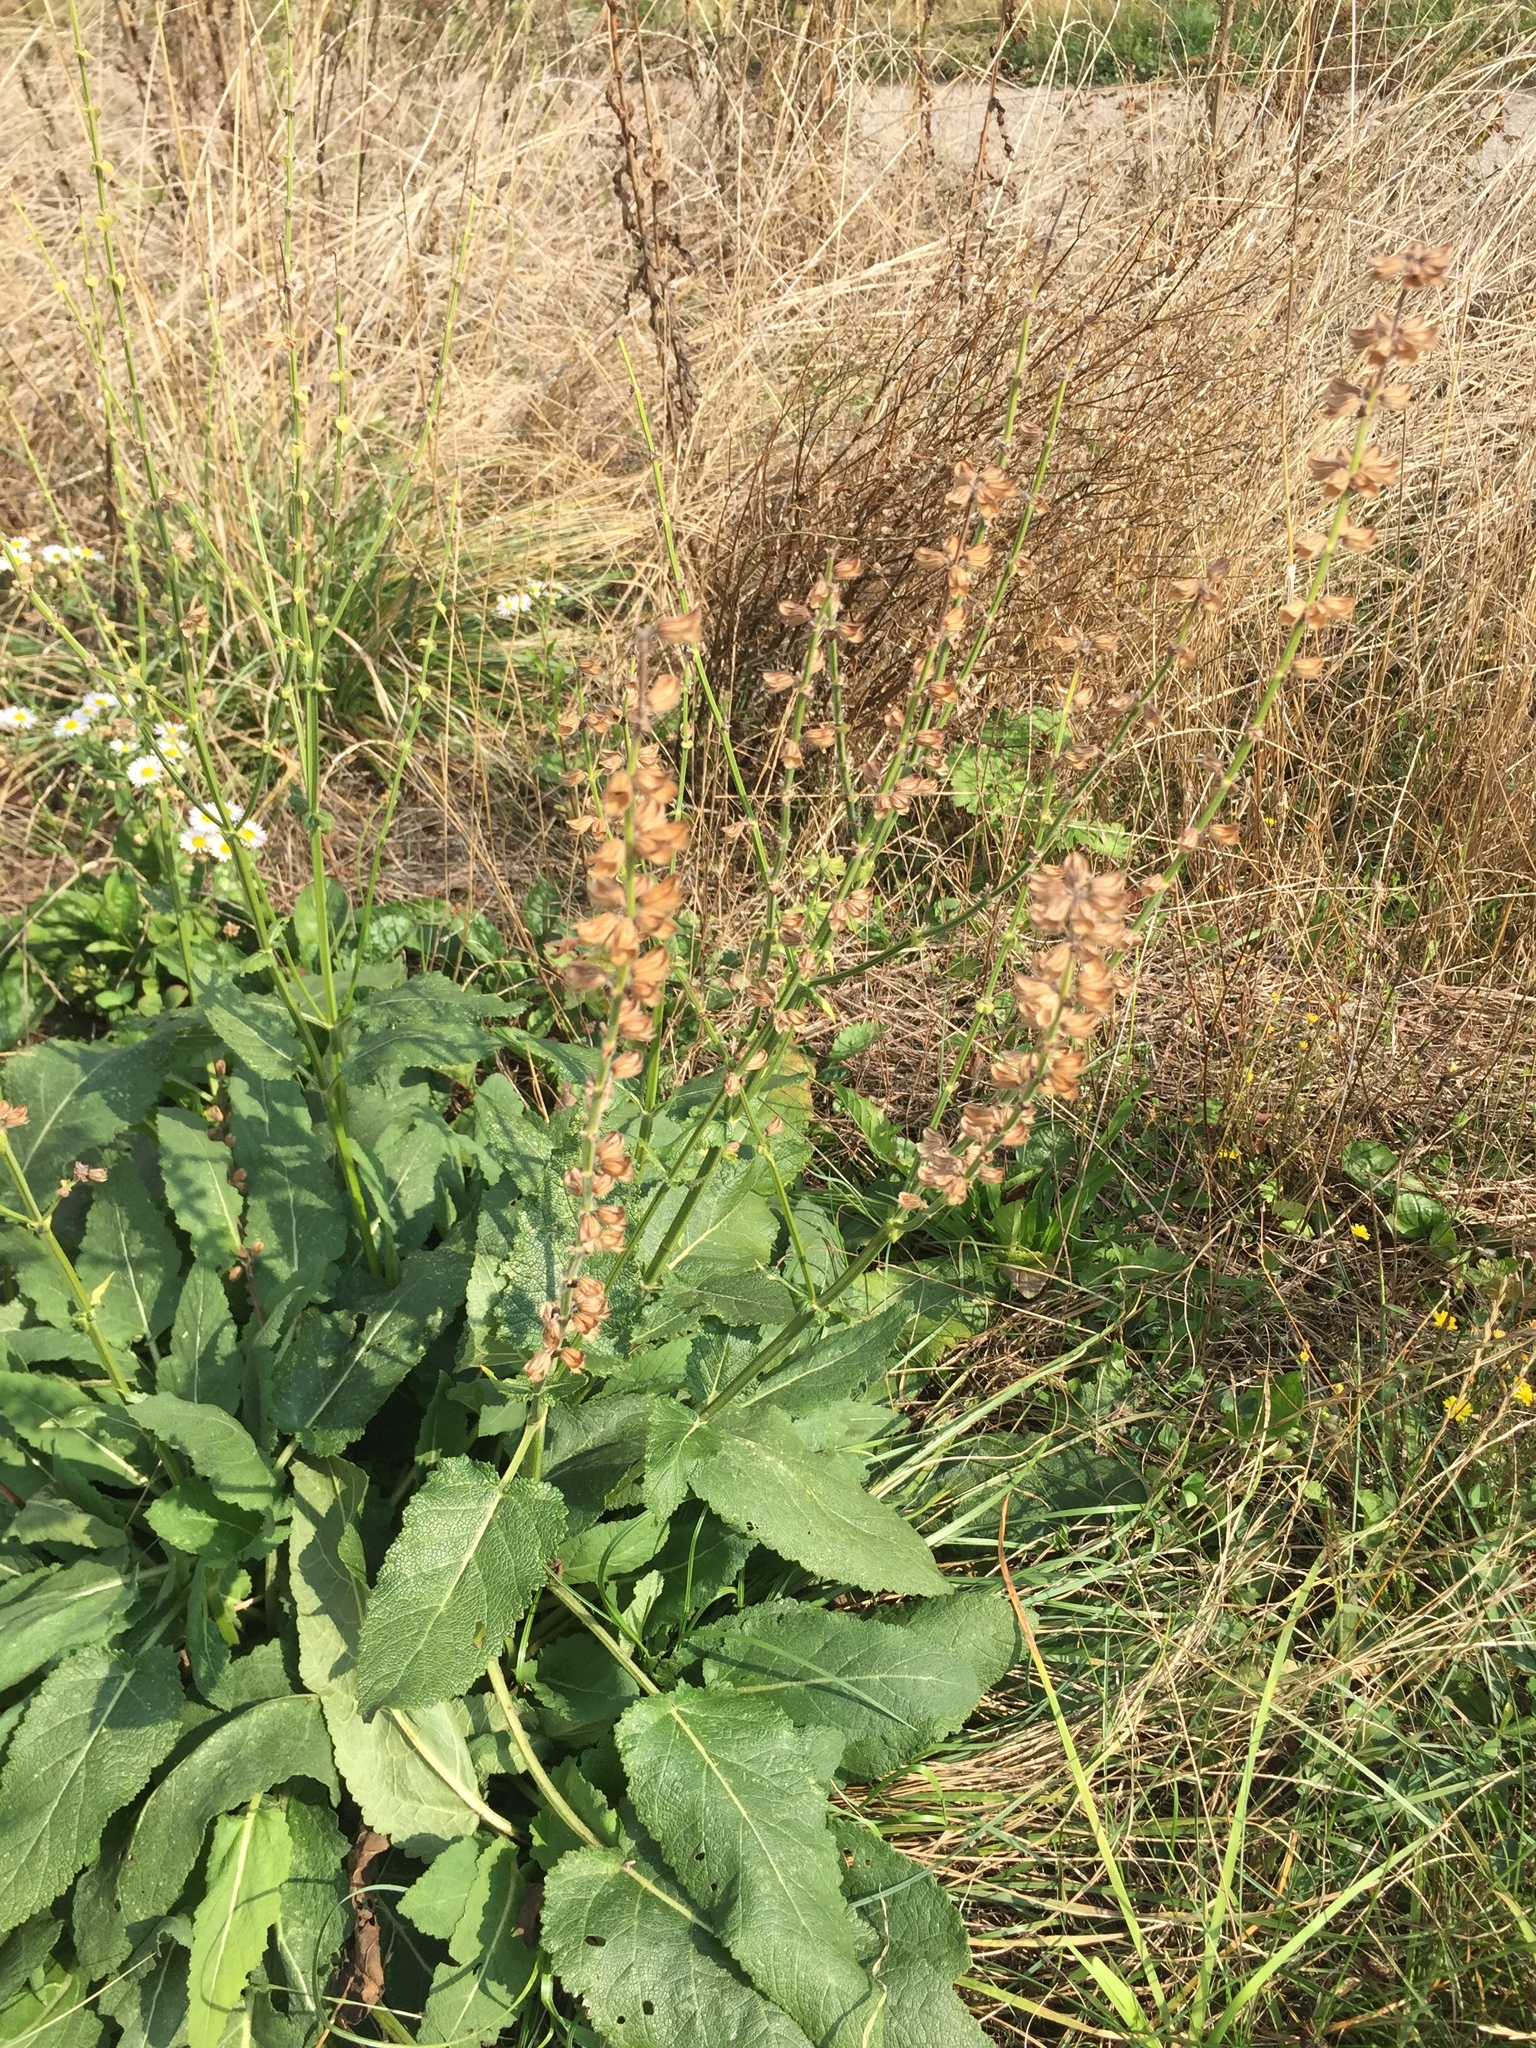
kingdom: Plantae
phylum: Tracheophyta
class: Magnoliopsida
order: Lamiales
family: Lamiaceae
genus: Salvia
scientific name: Salvia pratensis
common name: Meadow sage
